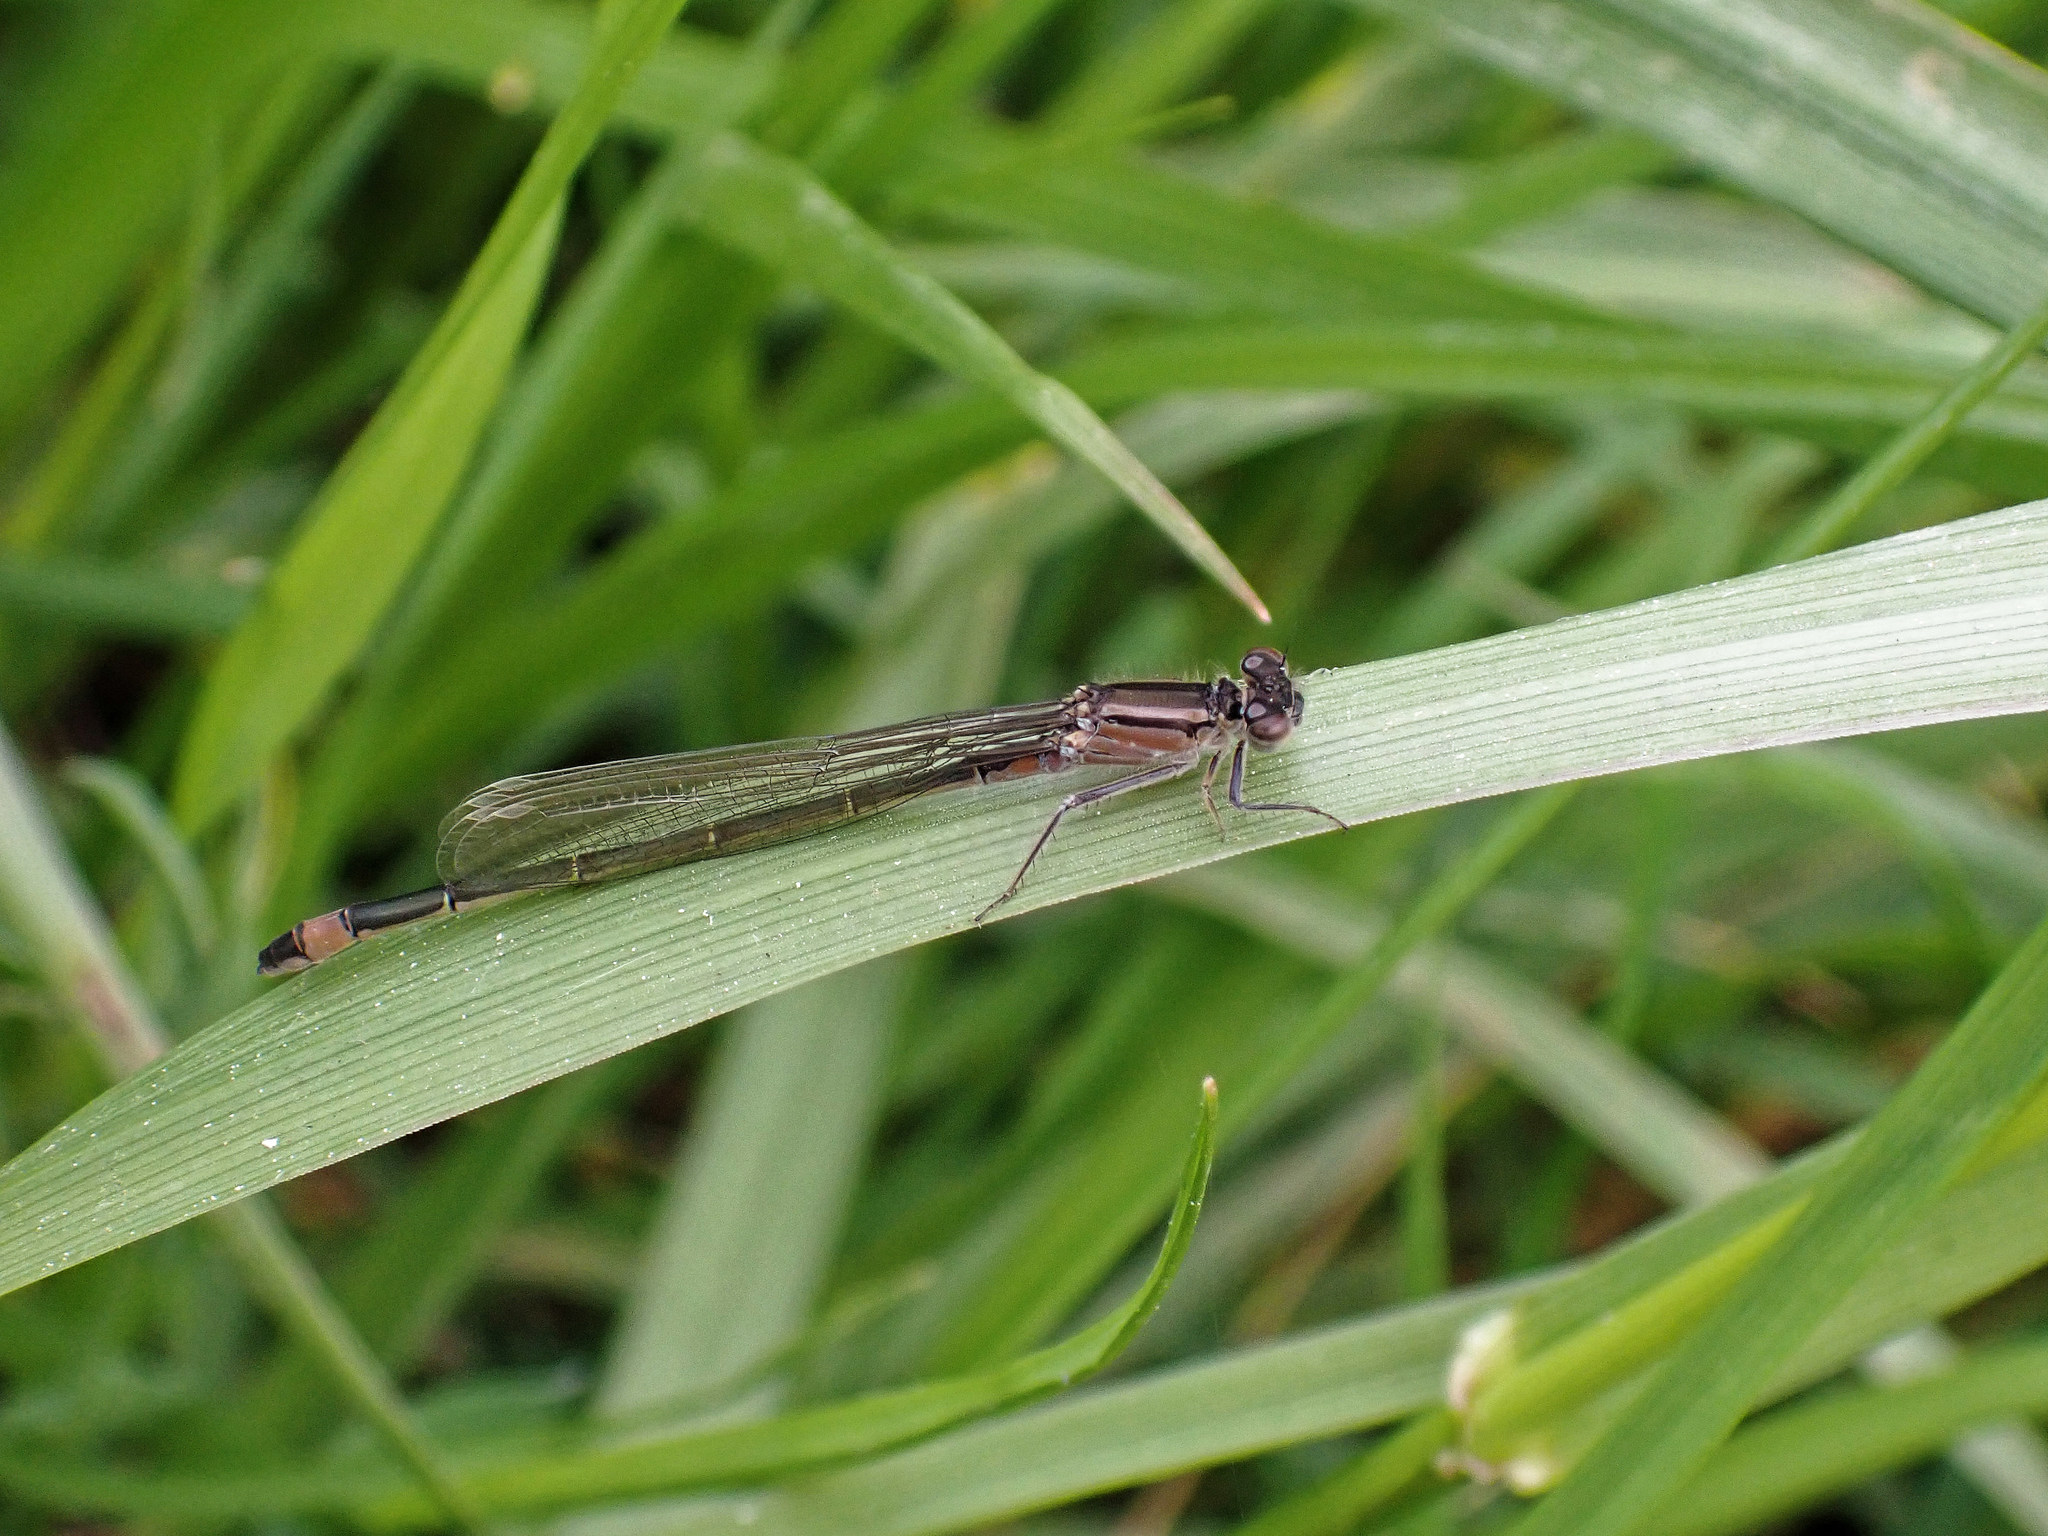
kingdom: Animalia
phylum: Arthropoda
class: Insecta
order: Odonata
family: Coenagrionidae
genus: Ischnura
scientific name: Ischnura elegans
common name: Blue-tailed damselfly
